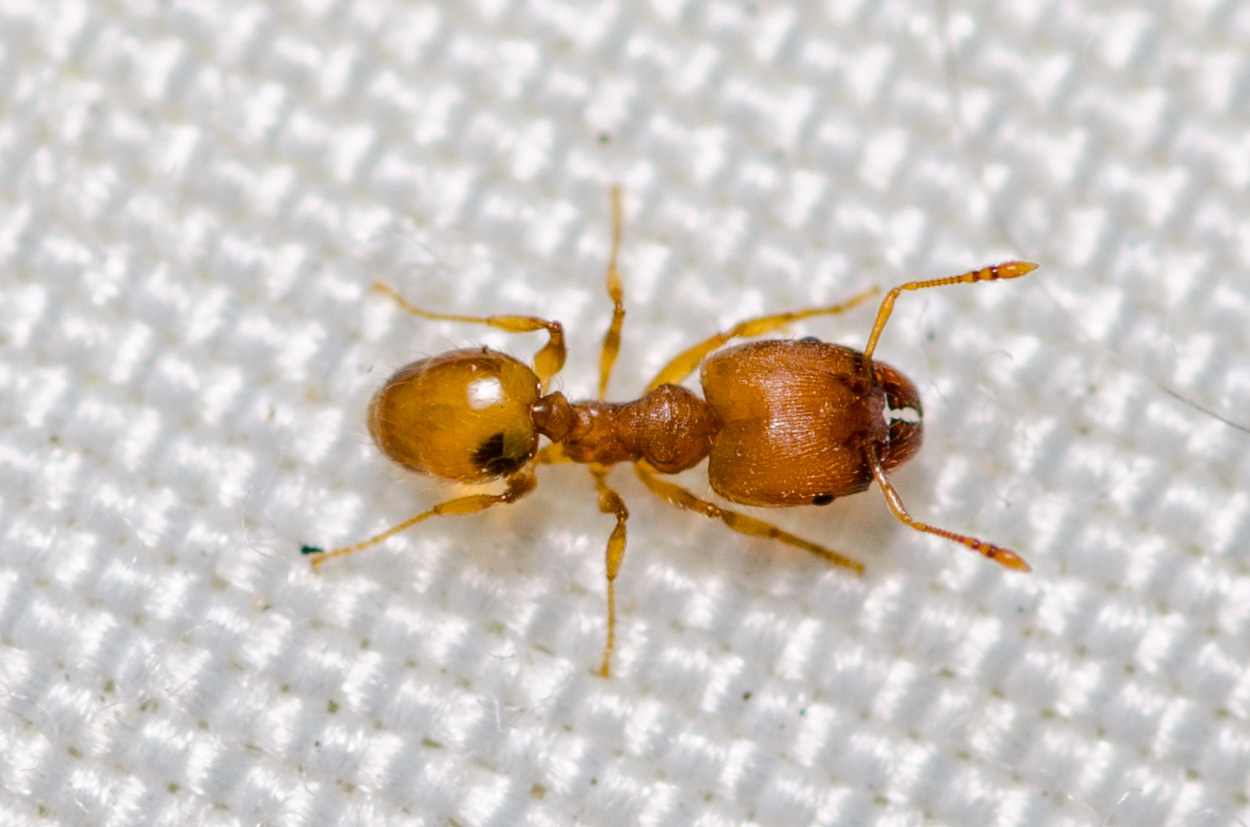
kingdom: Animalia
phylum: Arthropoda
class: Insecta
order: Hymenoptera
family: Formicidae
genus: Pheidole
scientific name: Pheidole bilimeki
